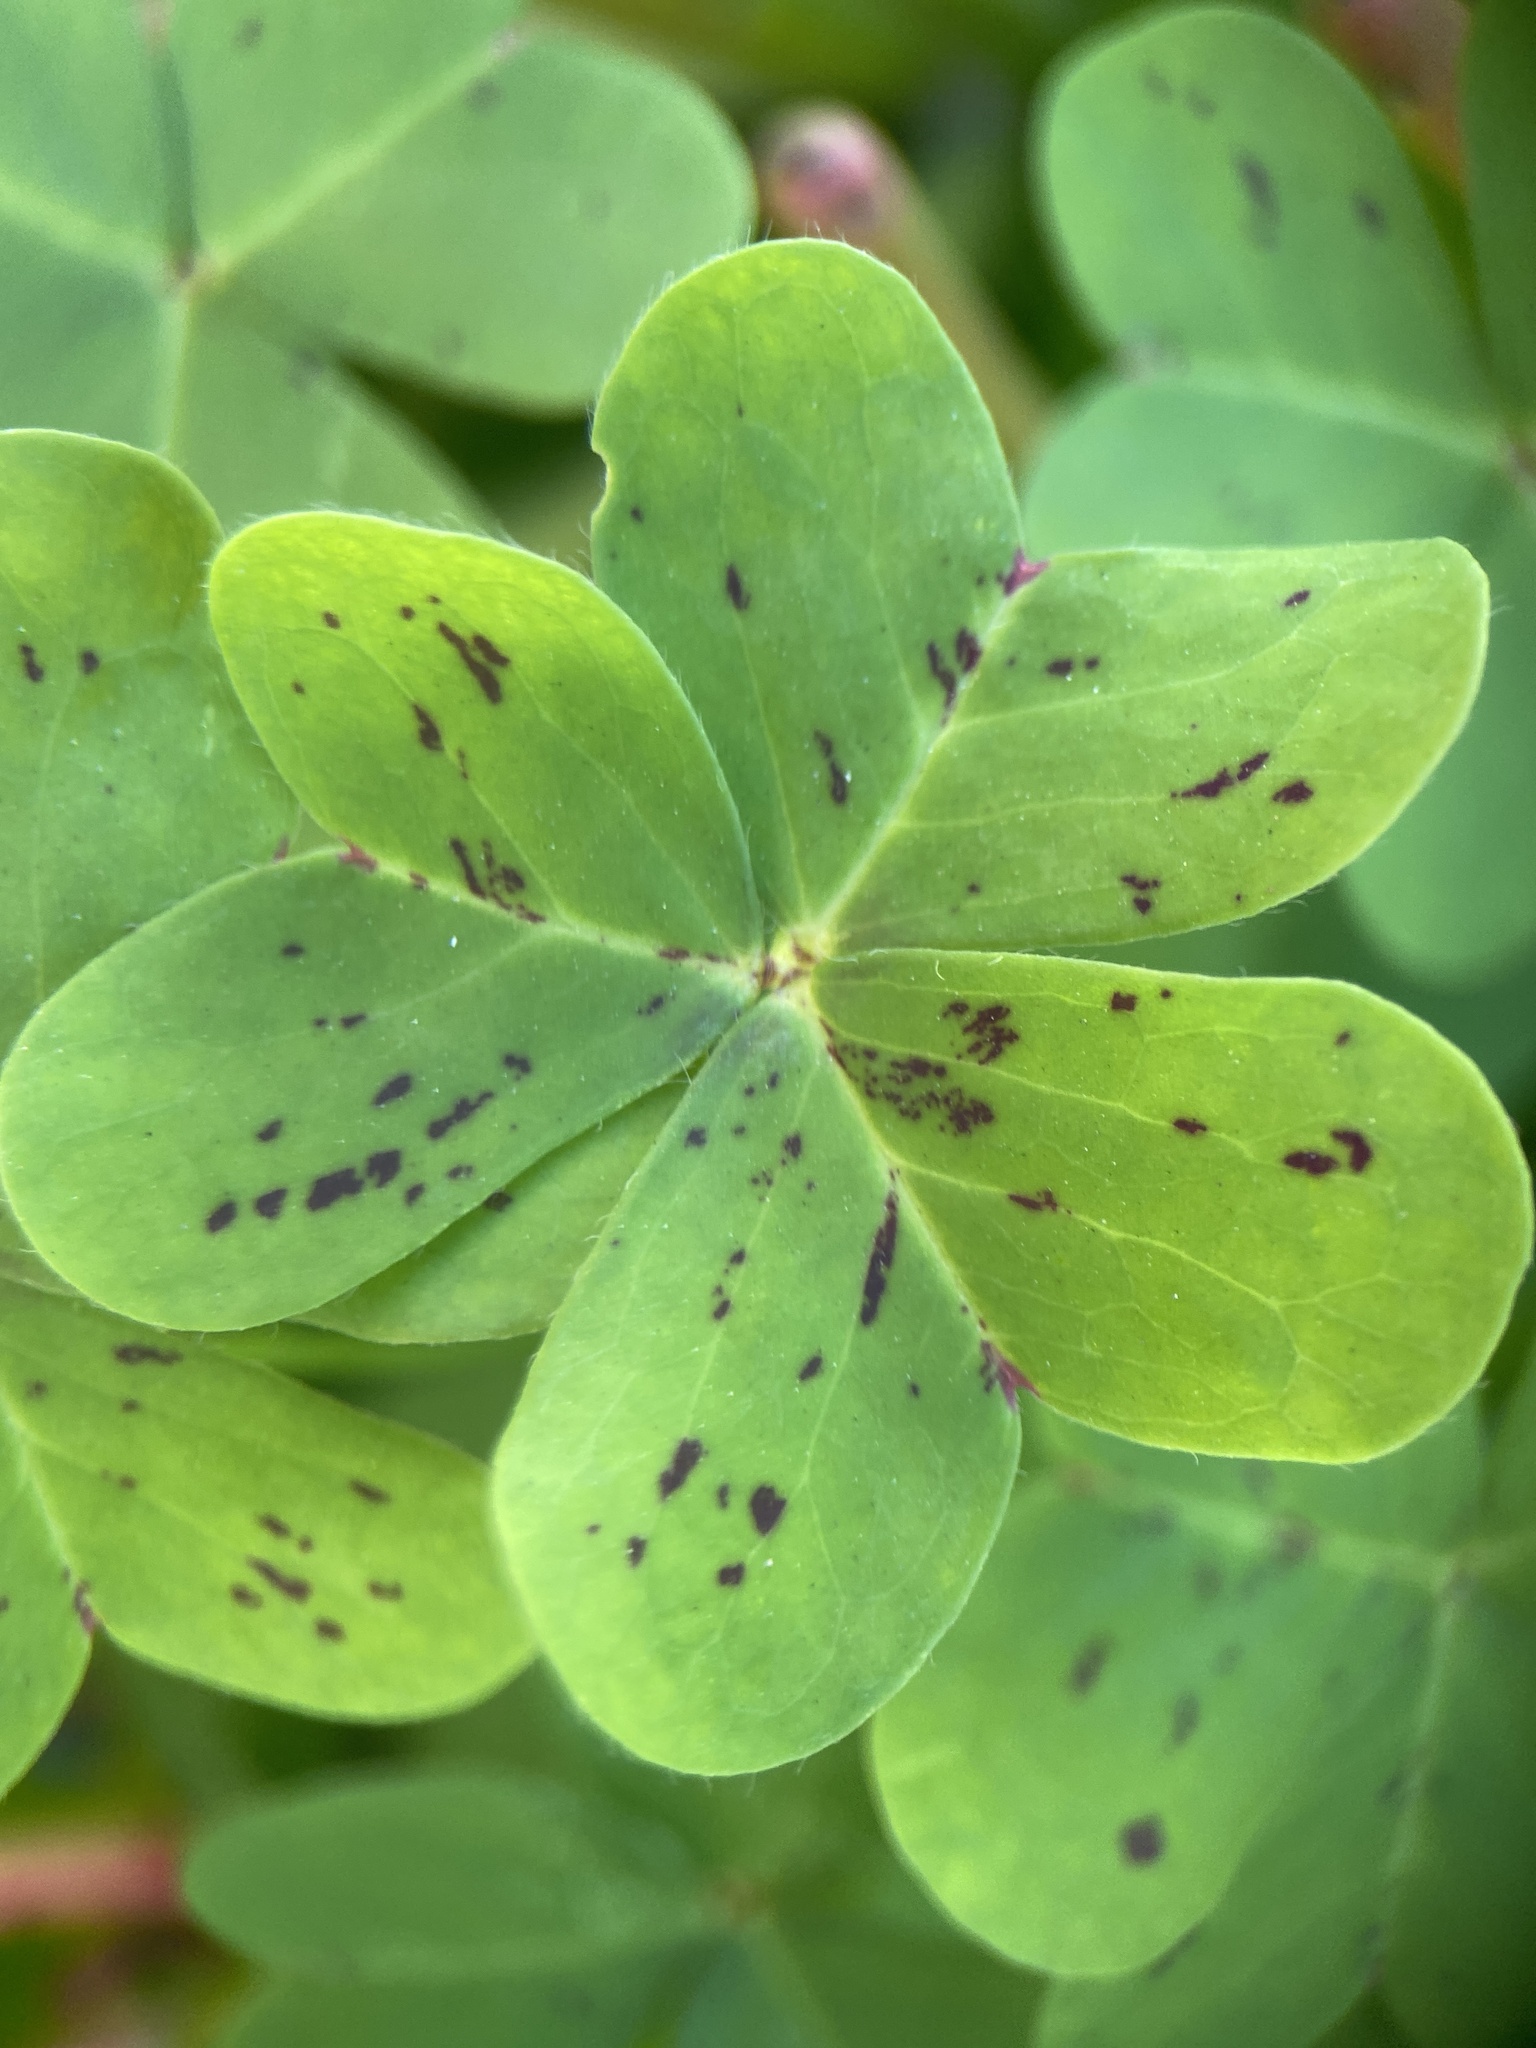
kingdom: Plantae
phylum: Tracheophyta
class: Magnoliopsida
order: Oxalidales
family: Oxalidaceae
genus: Oxalis
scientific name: Oxalis pes-caprae
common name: Bermuda-buttercup
